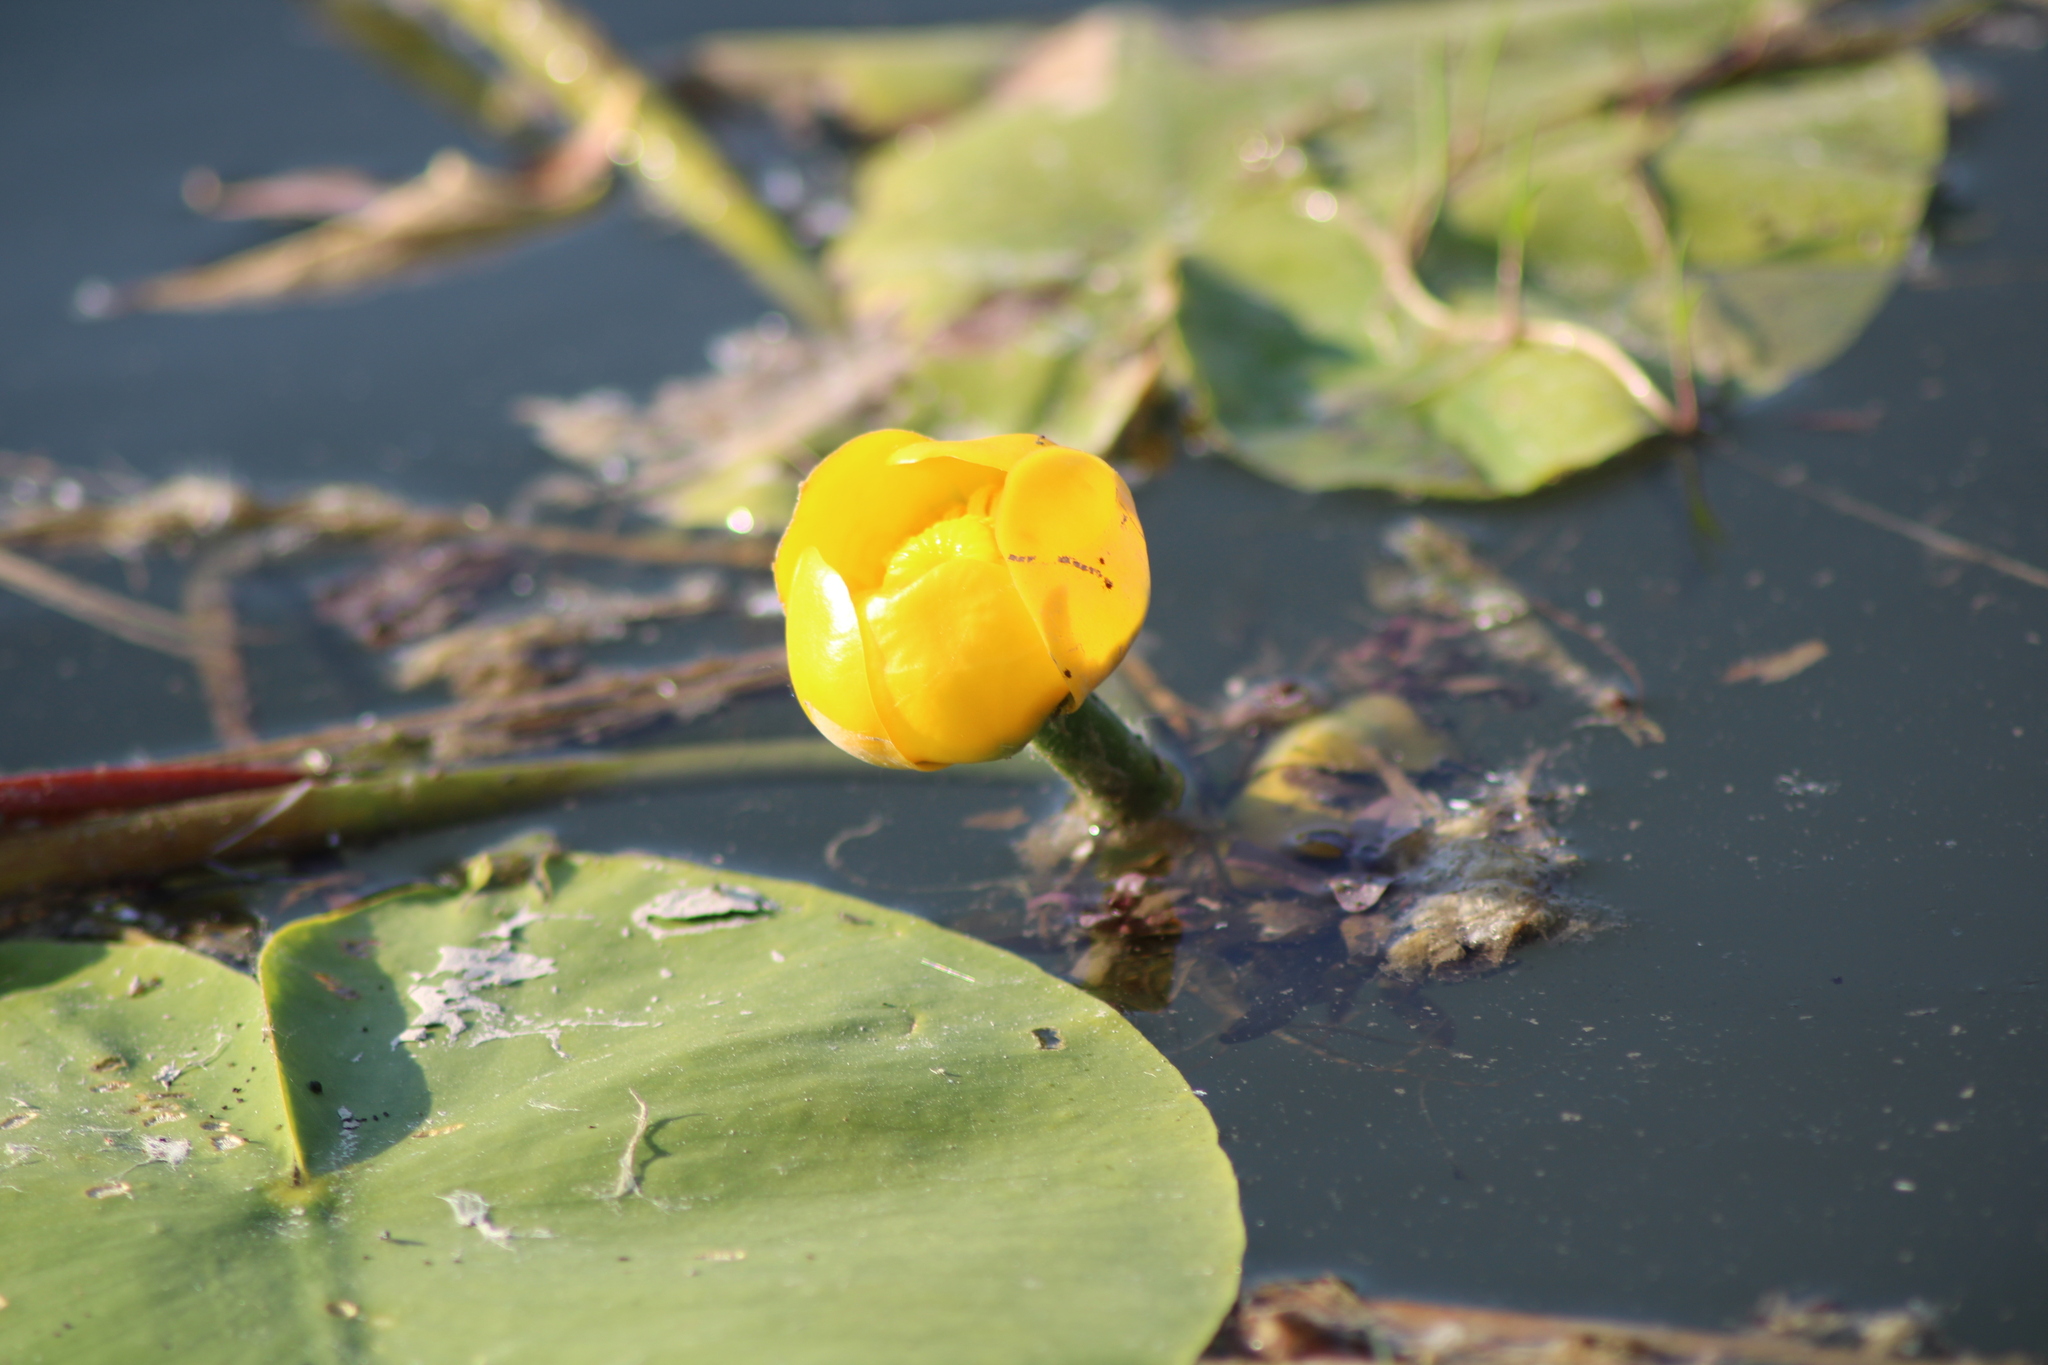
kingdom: Plantae
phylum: Tracheophyta
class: Magnoliopsida
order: Nymphaeales
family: Nymphaeaceae
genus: Nuphar
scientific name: Nuphar lutea
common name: Yellow water-lily
